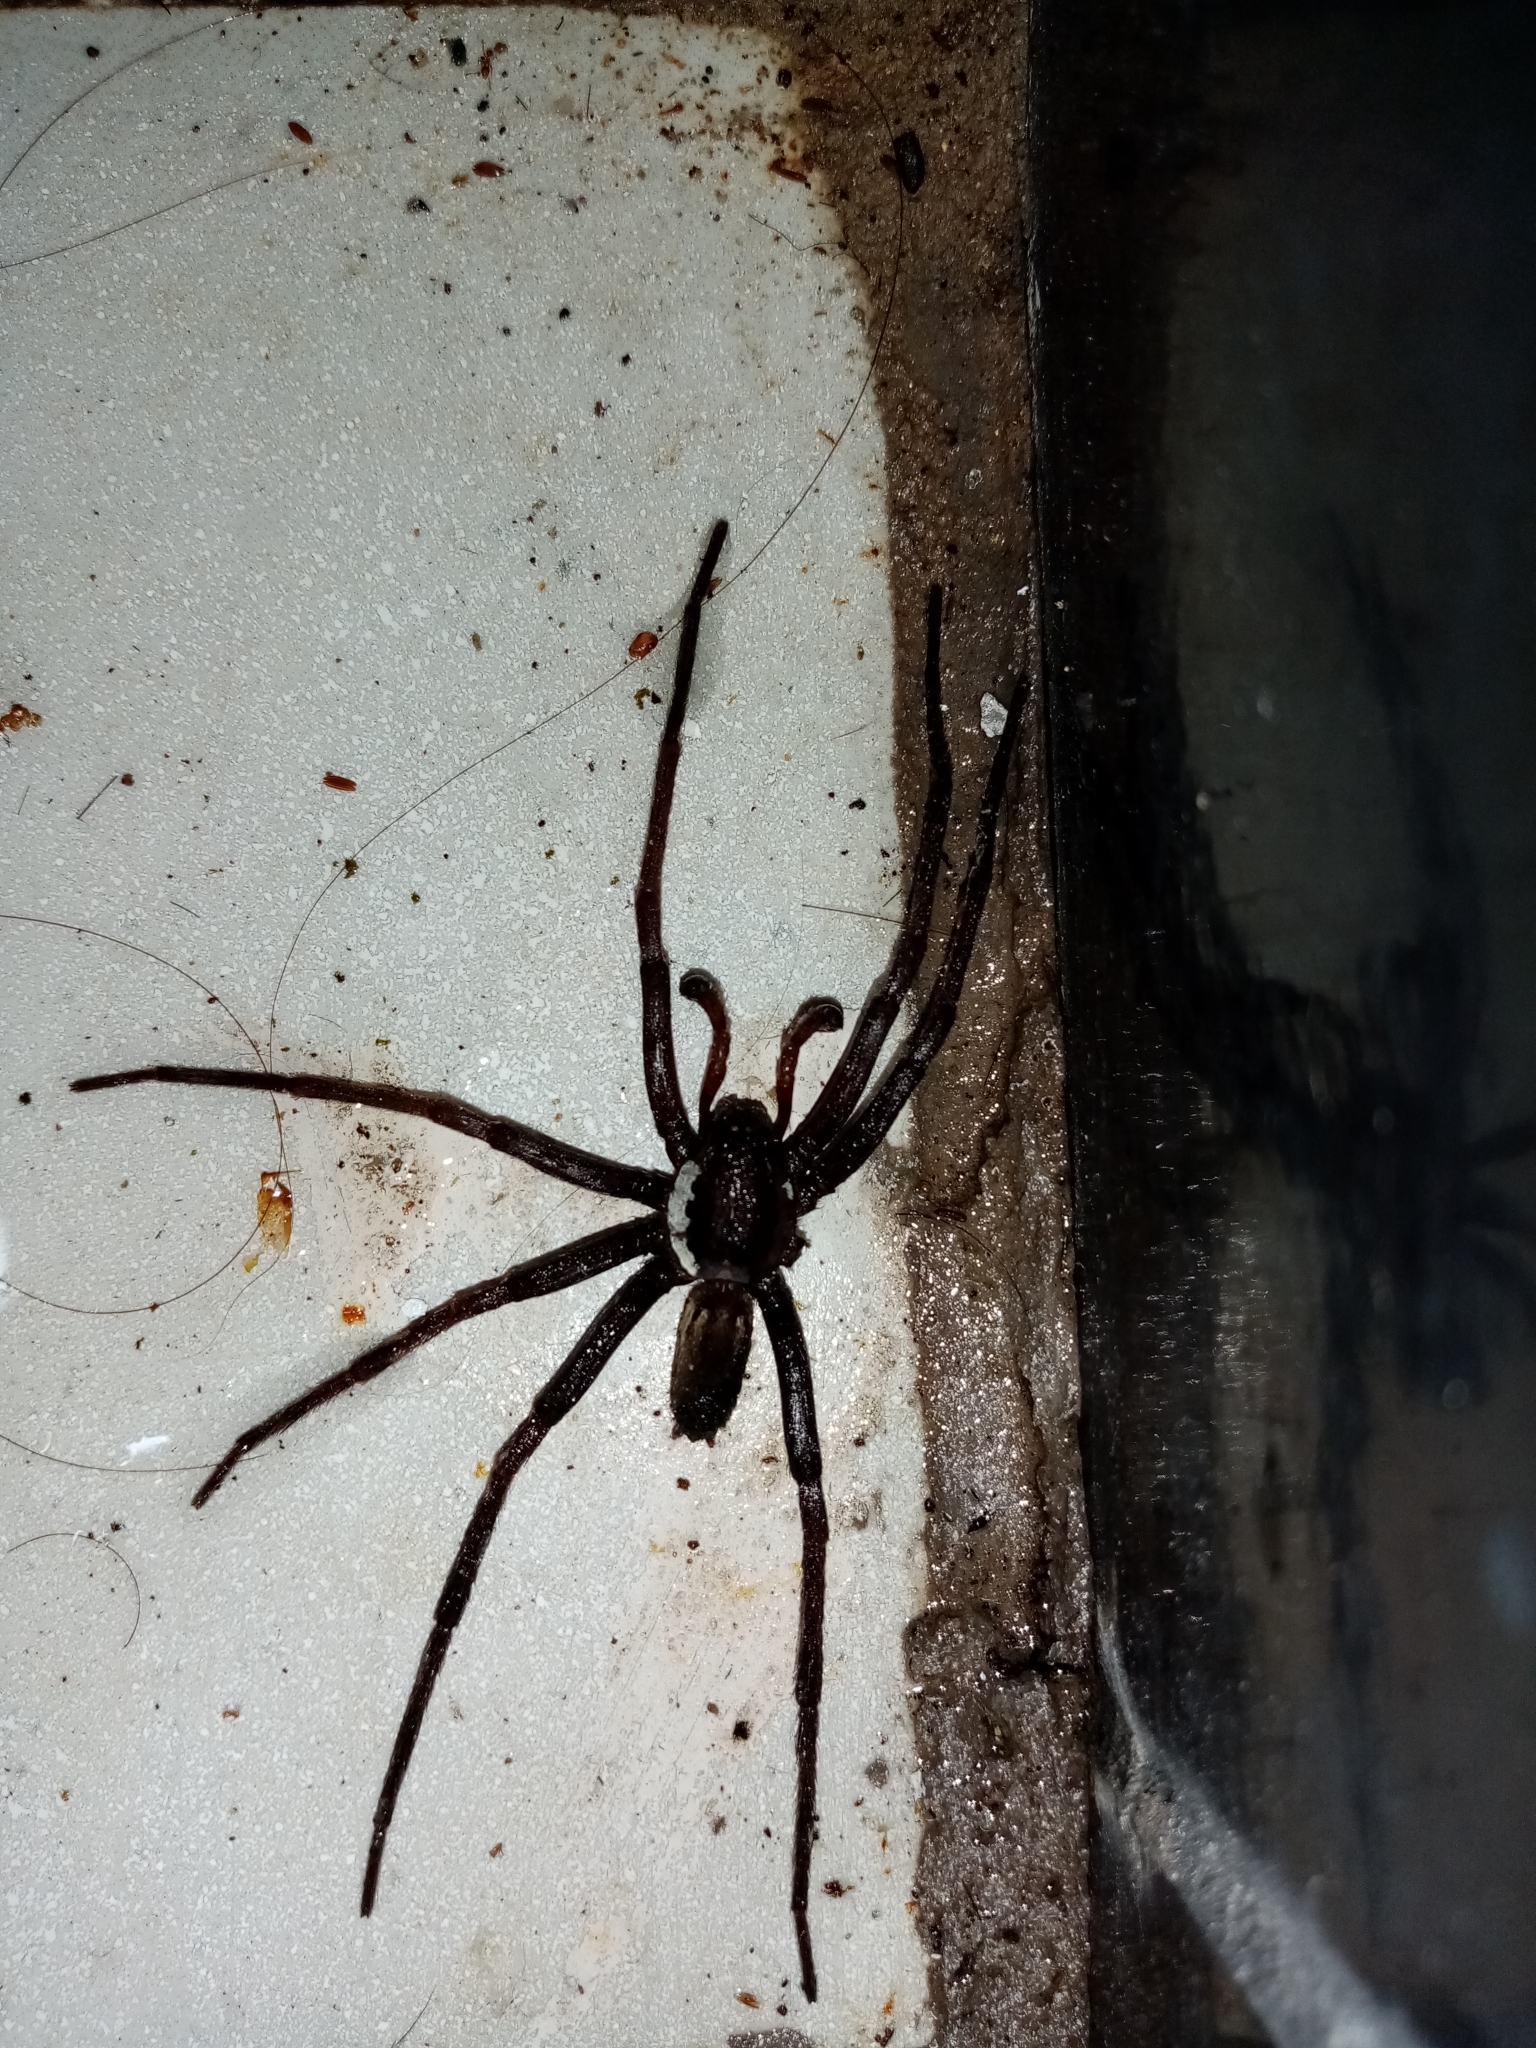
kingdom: Animalia
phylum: Arthropoda
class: Arachnida
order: Araneae
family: Ctenidae
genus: Ancylometes
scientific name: Ancylometes
